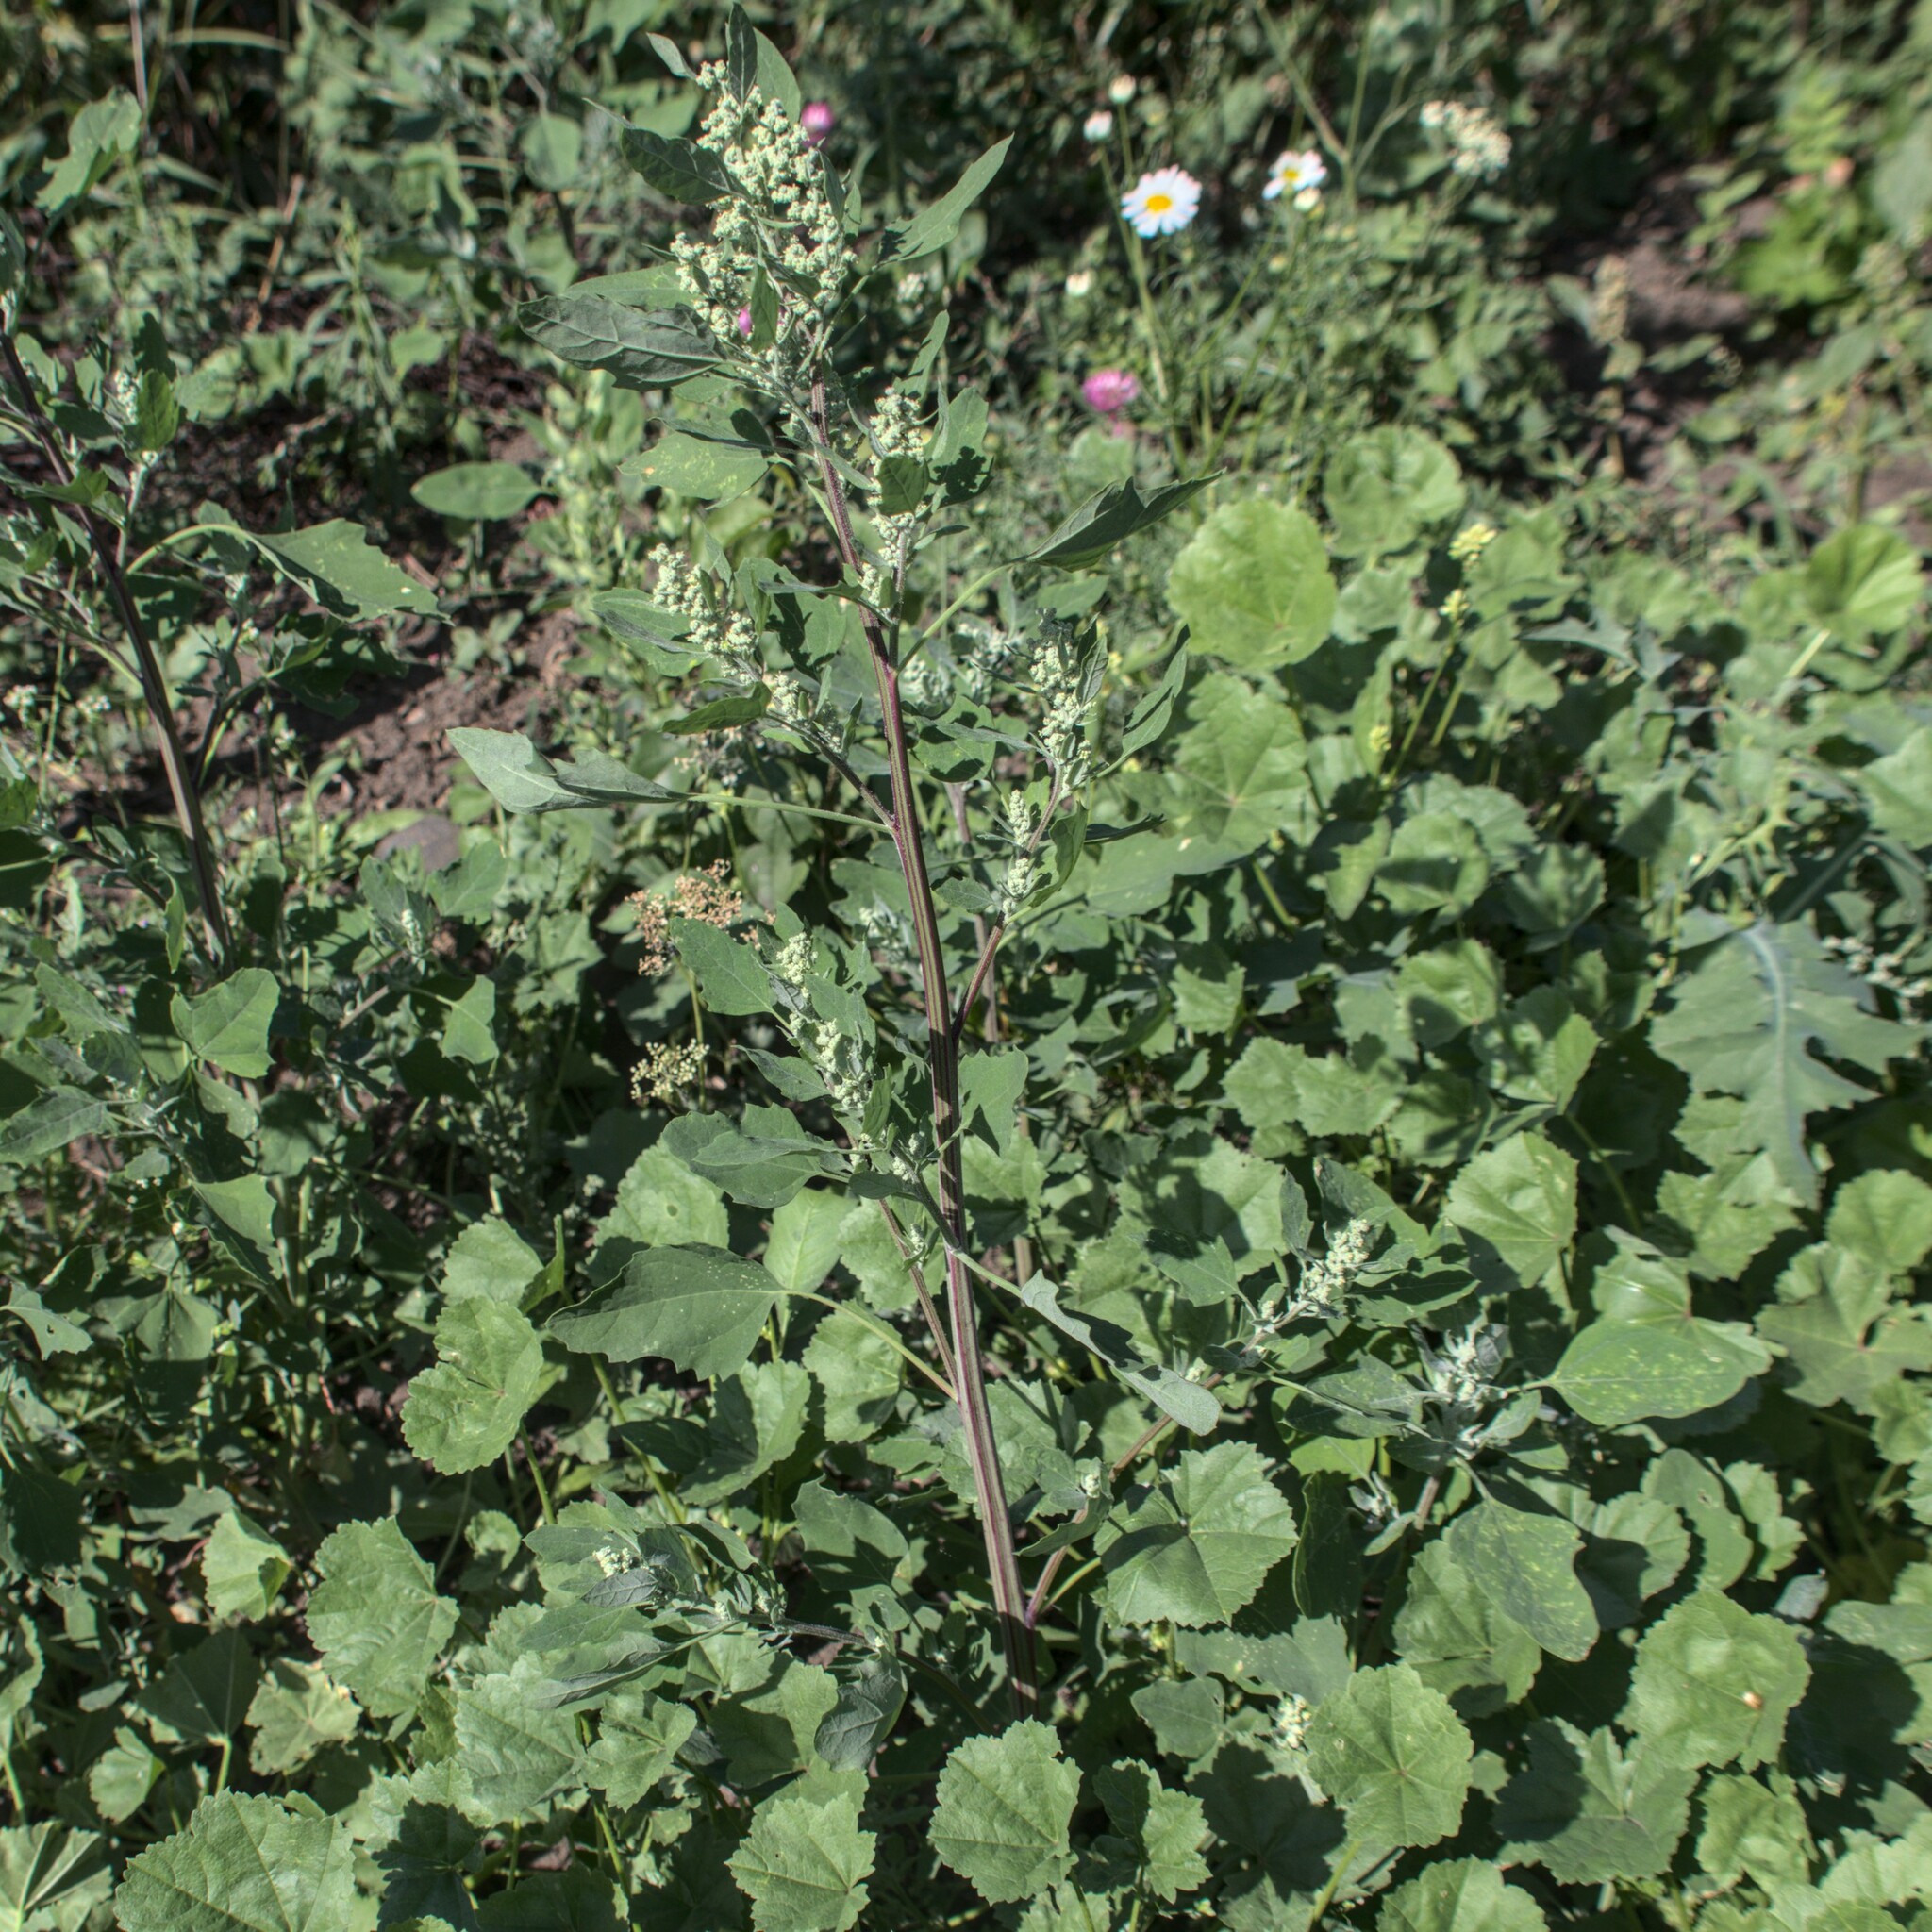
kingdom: Plantae
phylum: Tracheophyta
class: Magnoliopsida
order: Caryophyllales
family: Amaranthaceae
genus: Chenopodium
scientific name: Chenopodium album
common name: Fat-hen
